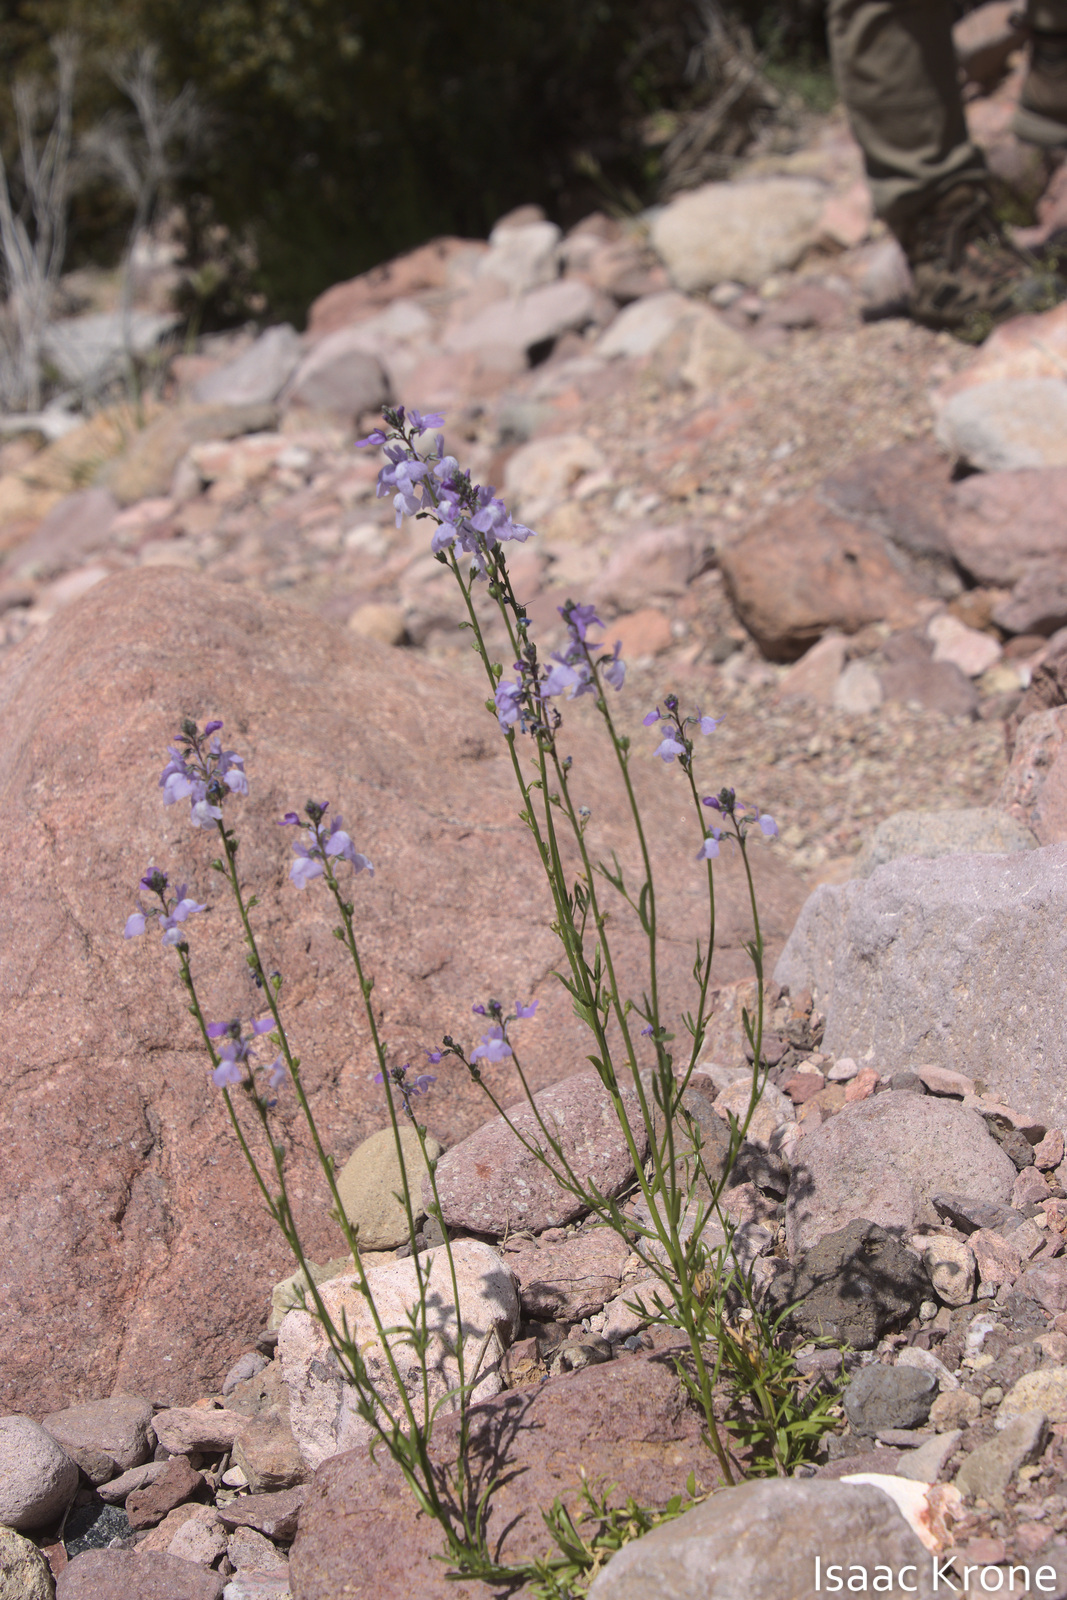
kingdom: Plantae
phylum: Tracheophyta
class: Magnoliopsida
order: Lamiales
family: Plantaginaceae
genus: Nuttallanthus
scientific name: Nuttallanthus texanus
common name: Texas toadflax
